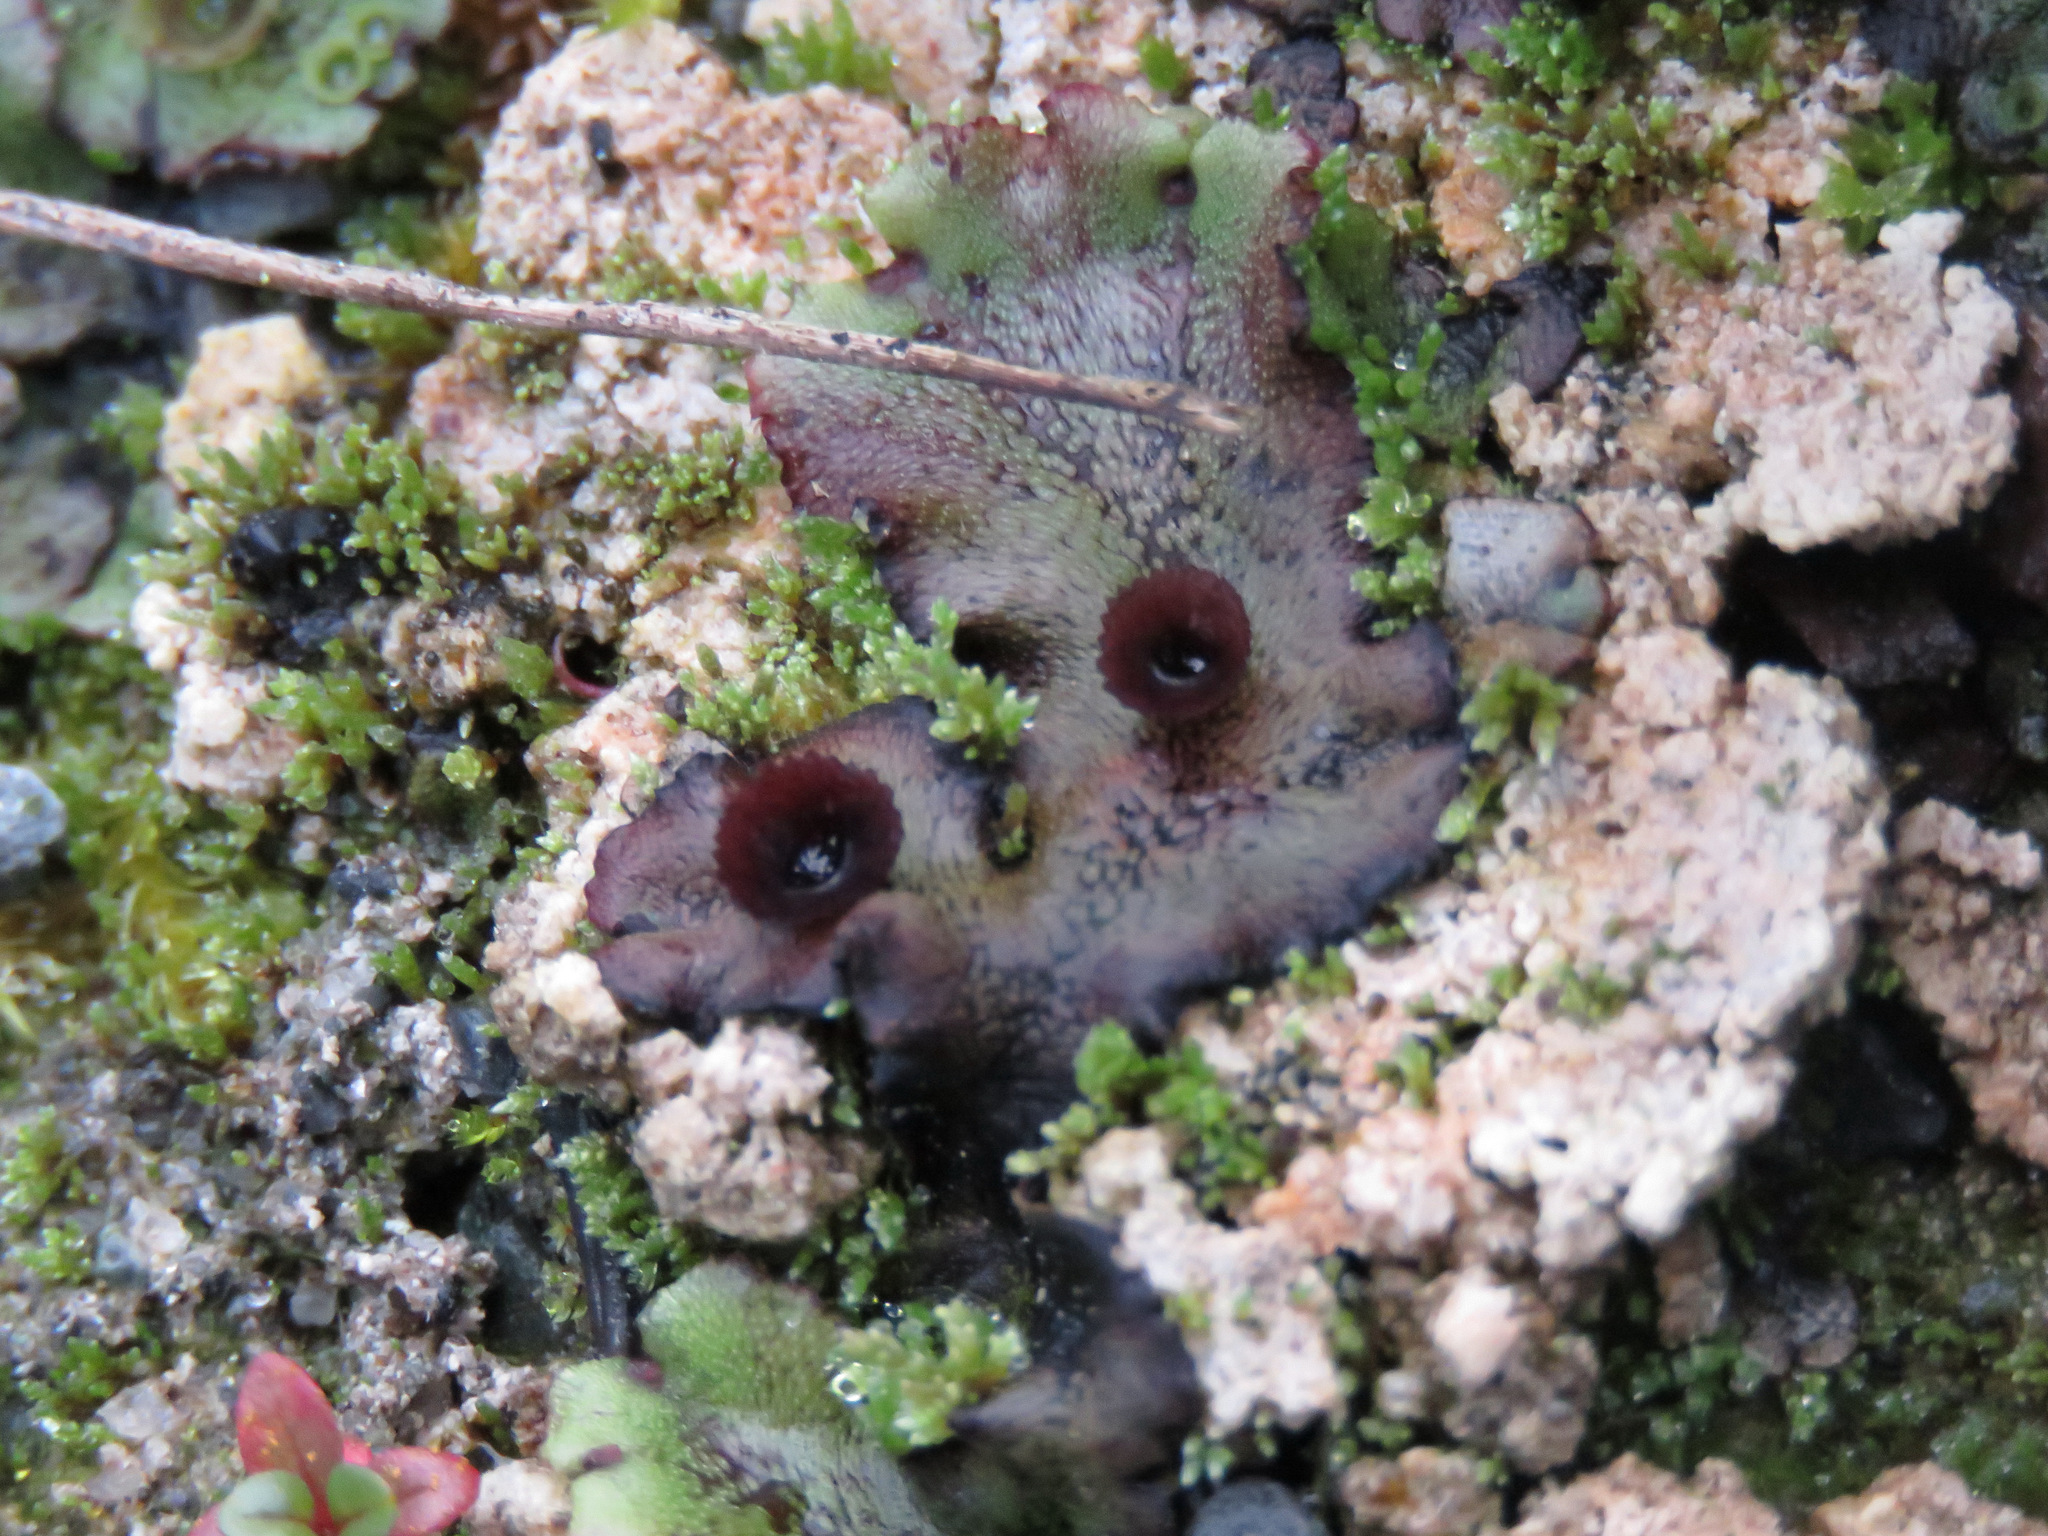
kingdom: Plantae
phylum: Marchantiophyta
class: Marchantiopsida
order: Marchantiales
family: Marchantiaceae
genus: Marchantia
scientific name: Marchantia polymorpha
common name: Common liverwort
